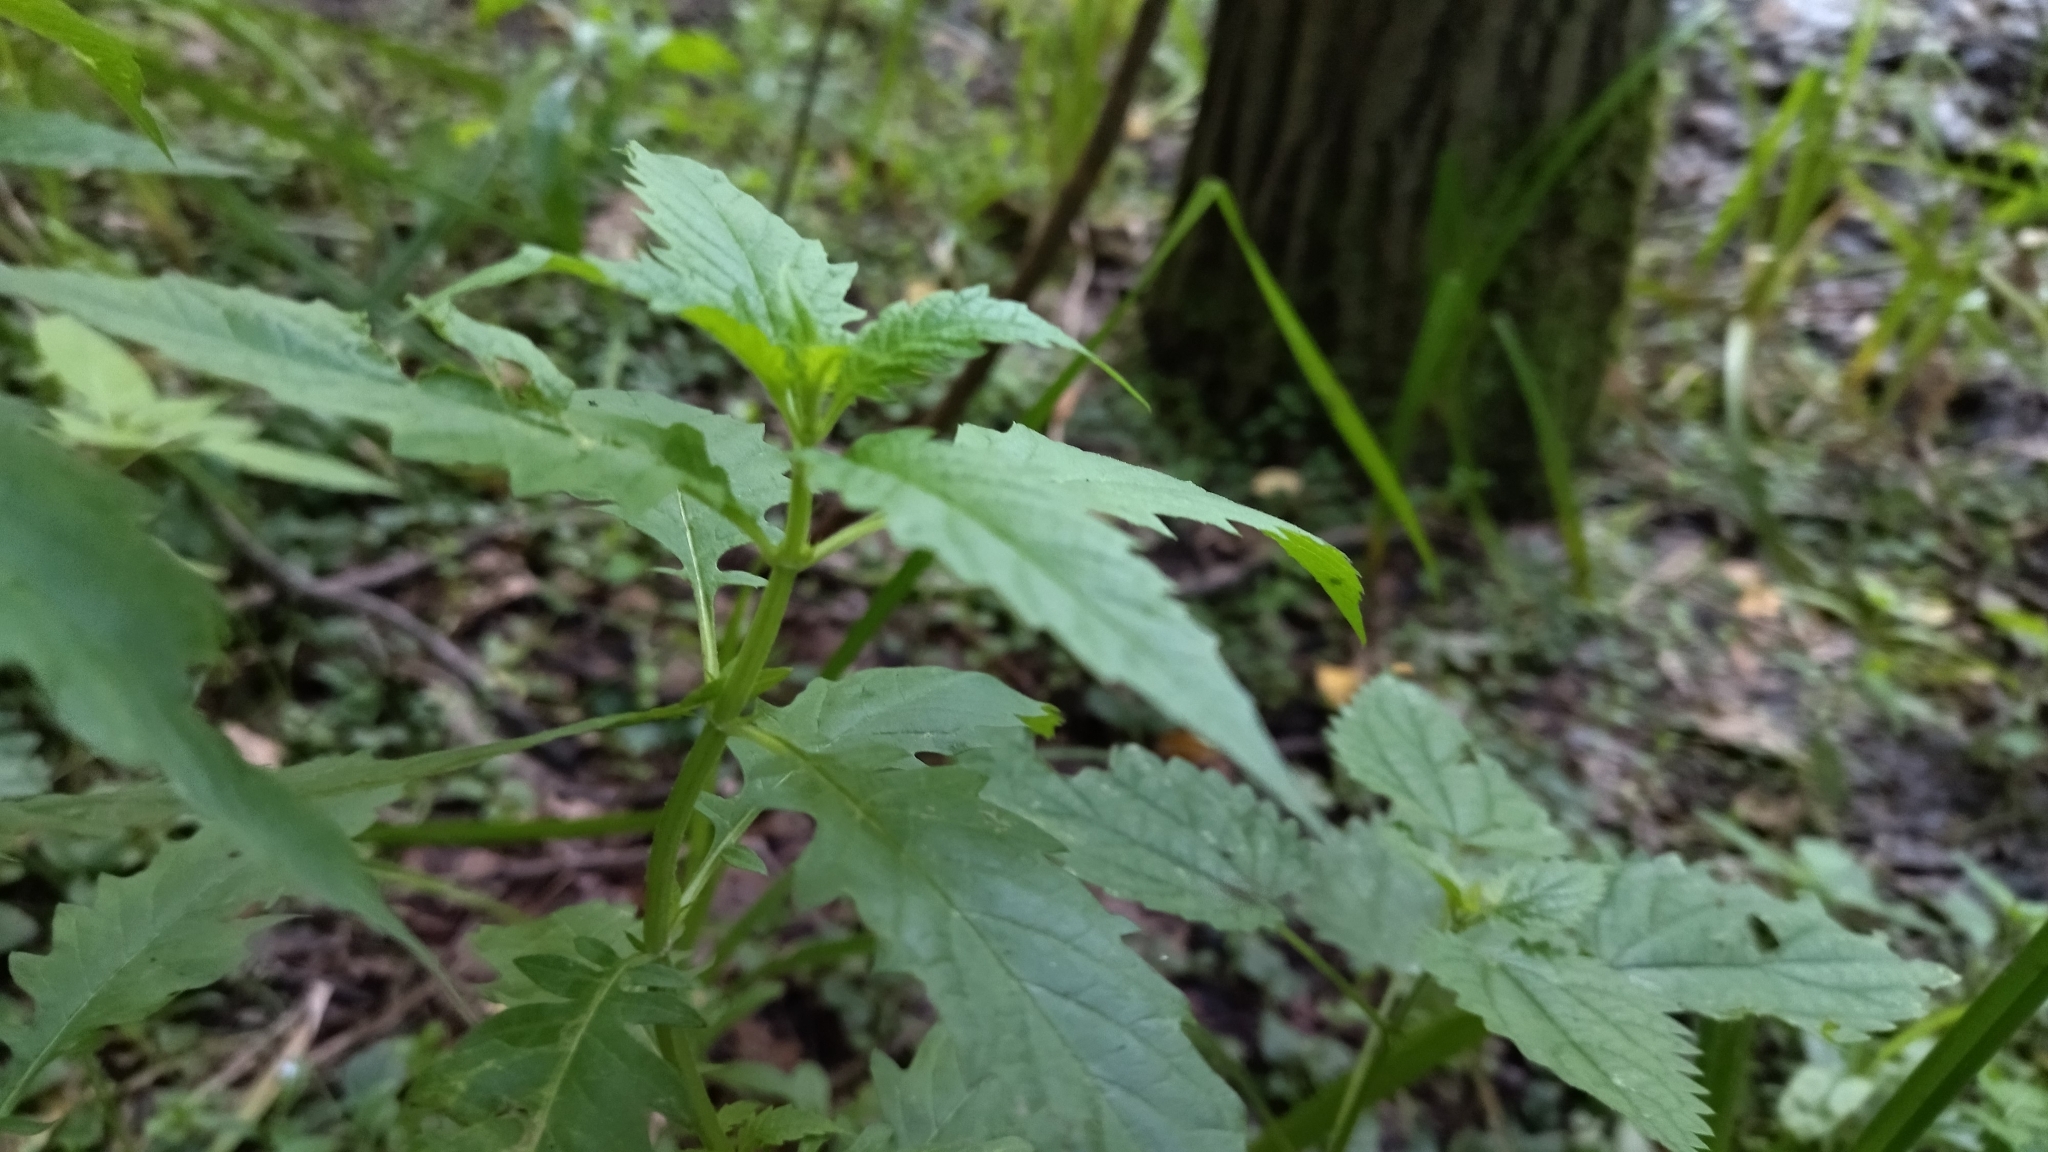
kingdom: Plantae
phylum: Tracheophyta
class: Magnoliopsida
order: Lamiales
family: Lamiaceae
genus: Lycopus
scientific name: Lycopus europaeus
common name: European bugleweed
